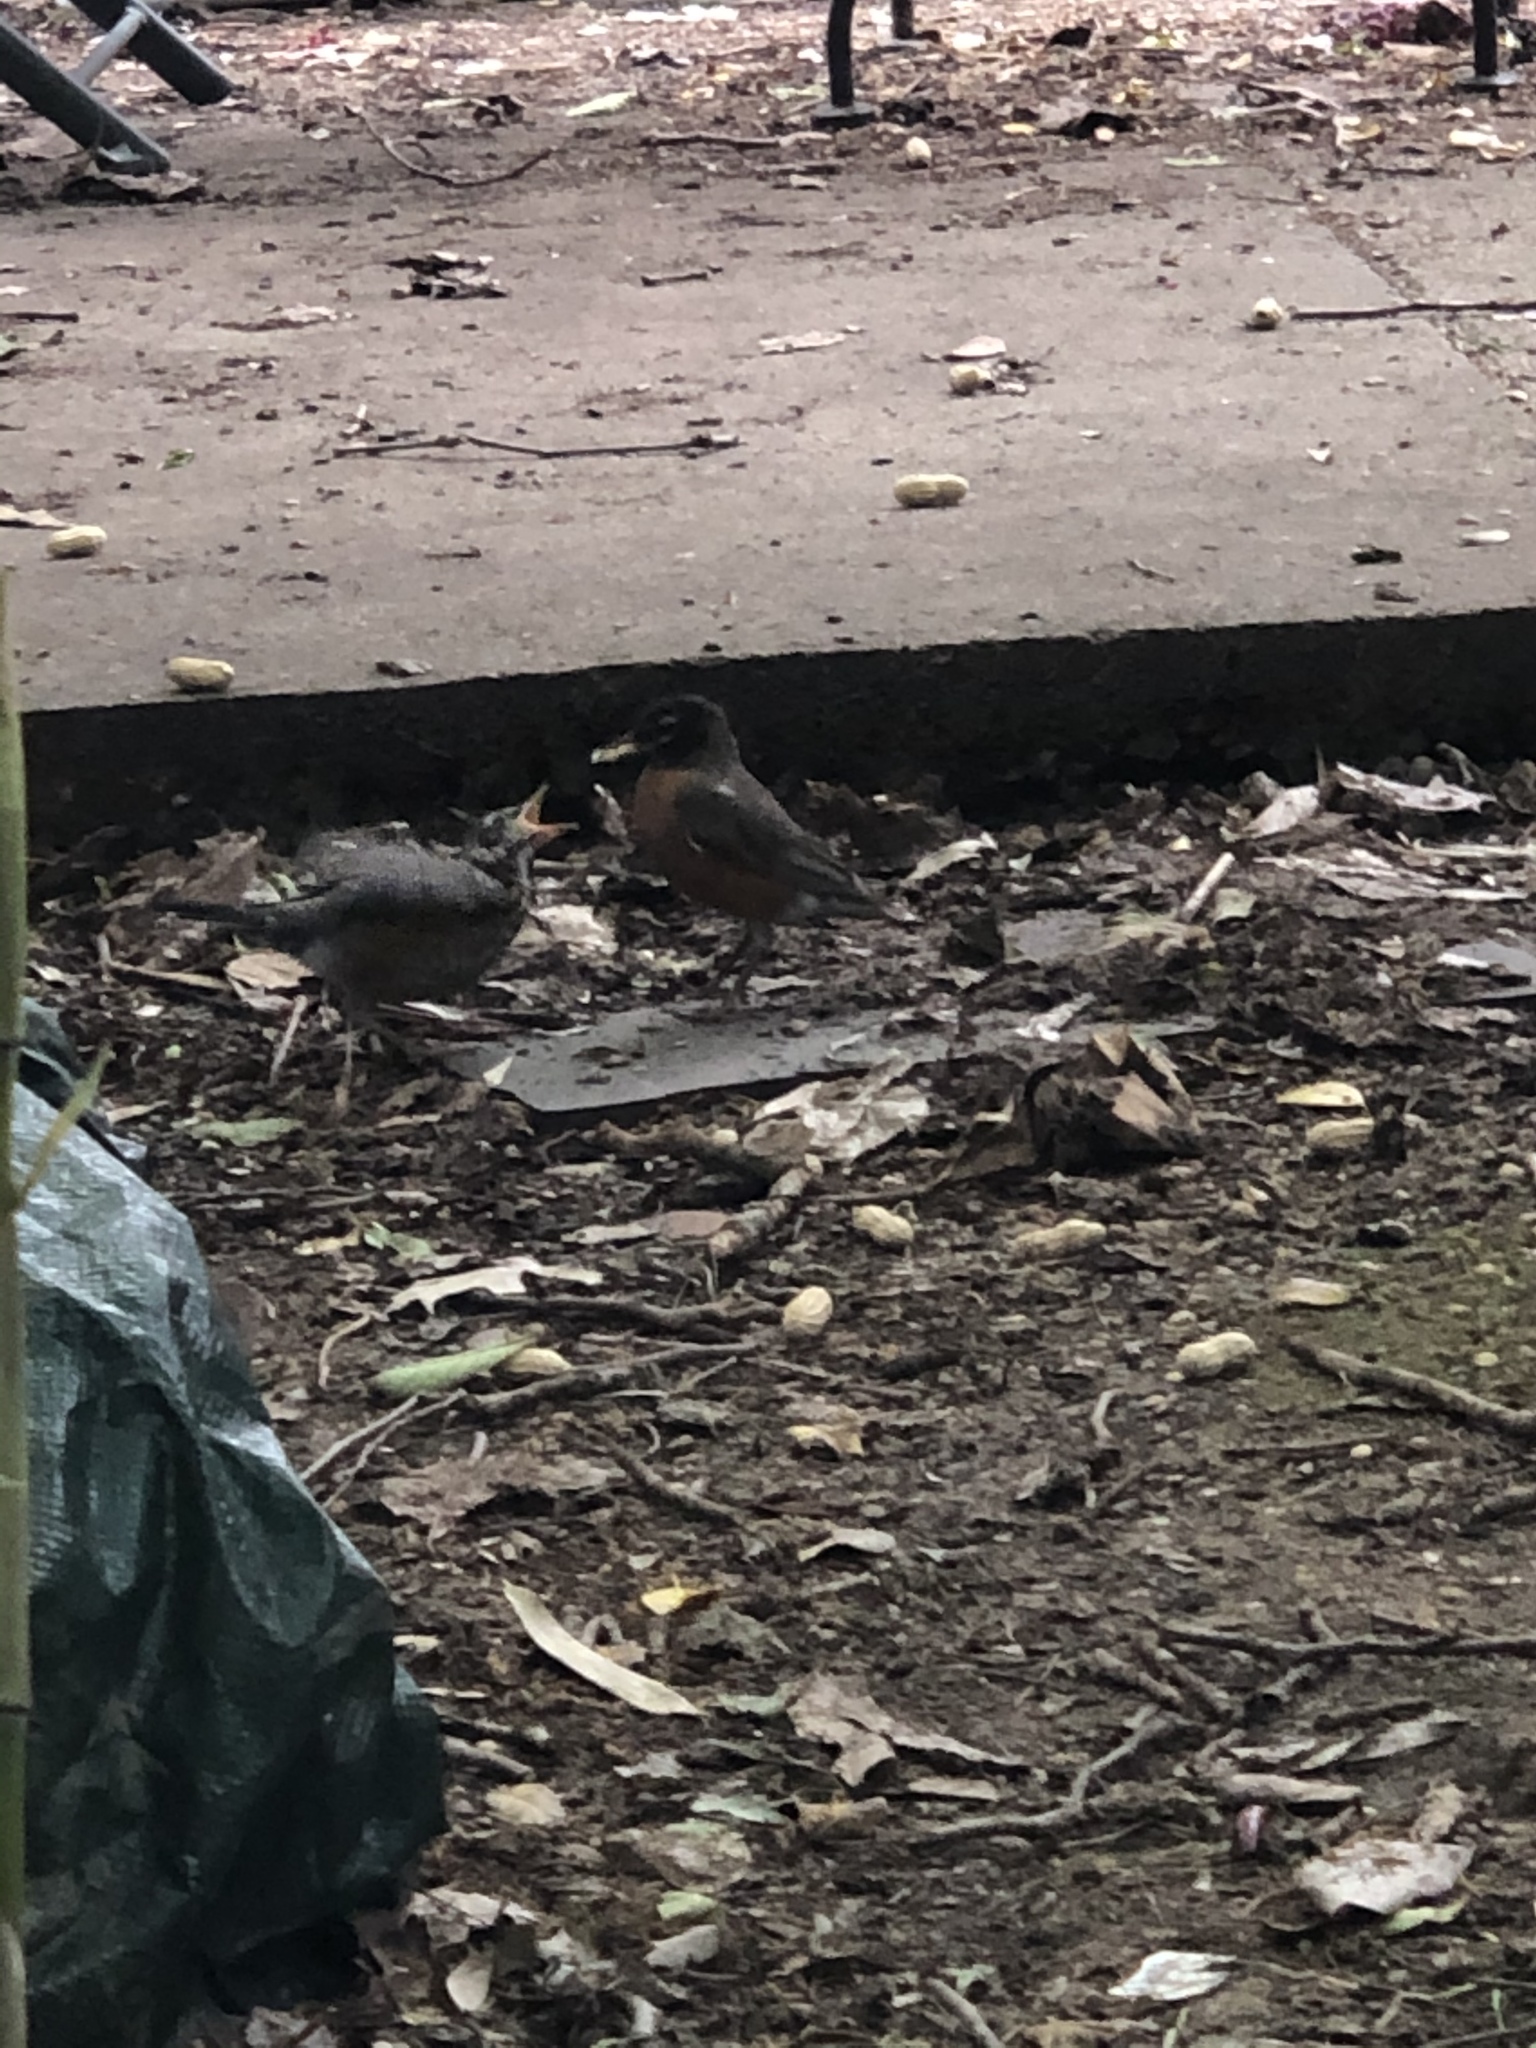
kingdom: Animalia
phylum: Chordata
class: Aves
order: Passeriformes
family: Turdidae
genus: Turdus
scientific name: Turdus migratorius
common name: American robin
